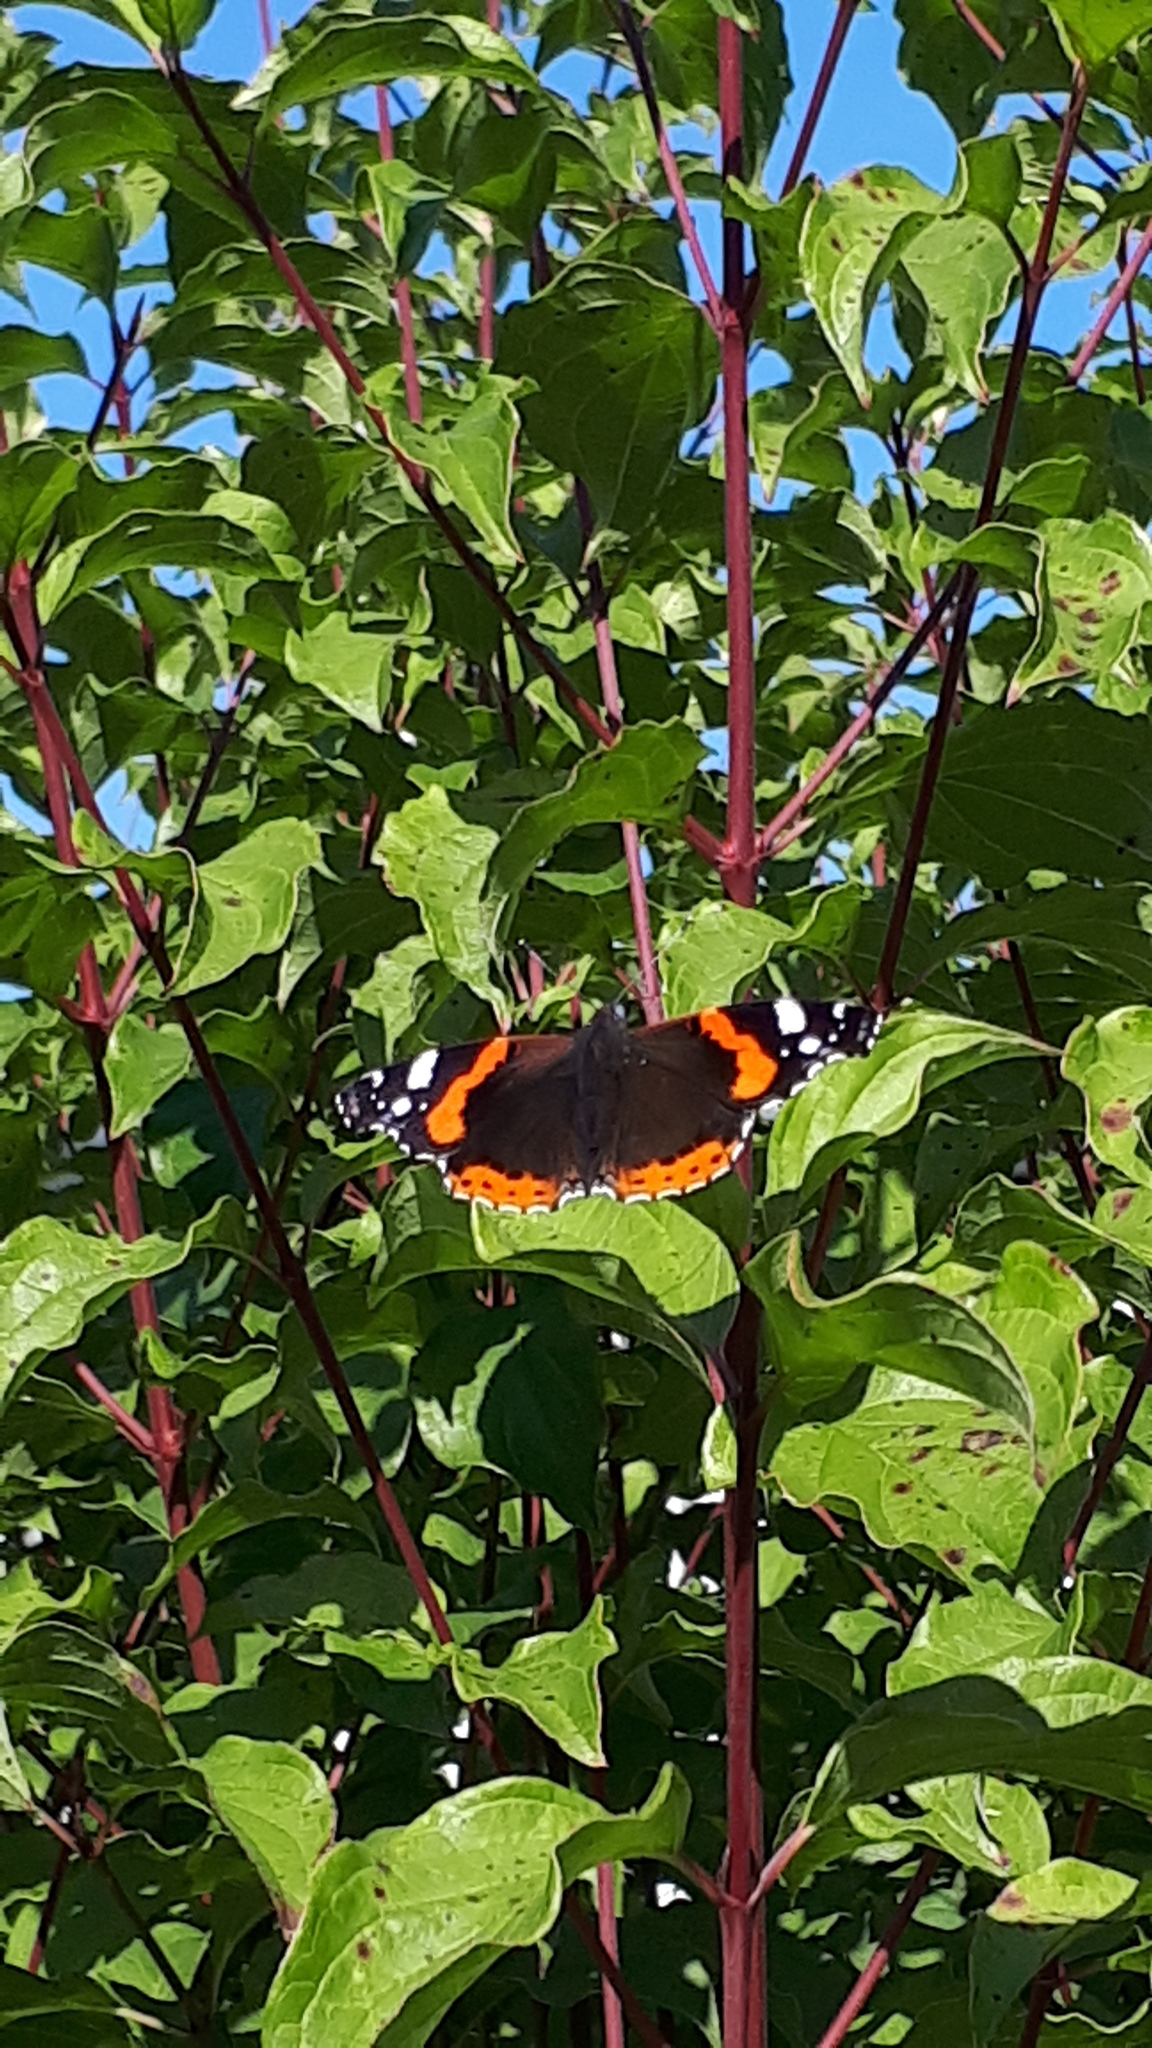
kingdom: Animalia
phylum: Arthropoda
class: Insecta
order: Lepidoptera
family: Nymphalidae
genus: Vanessa
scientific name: Vanessa atalanta
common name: Red admiral
